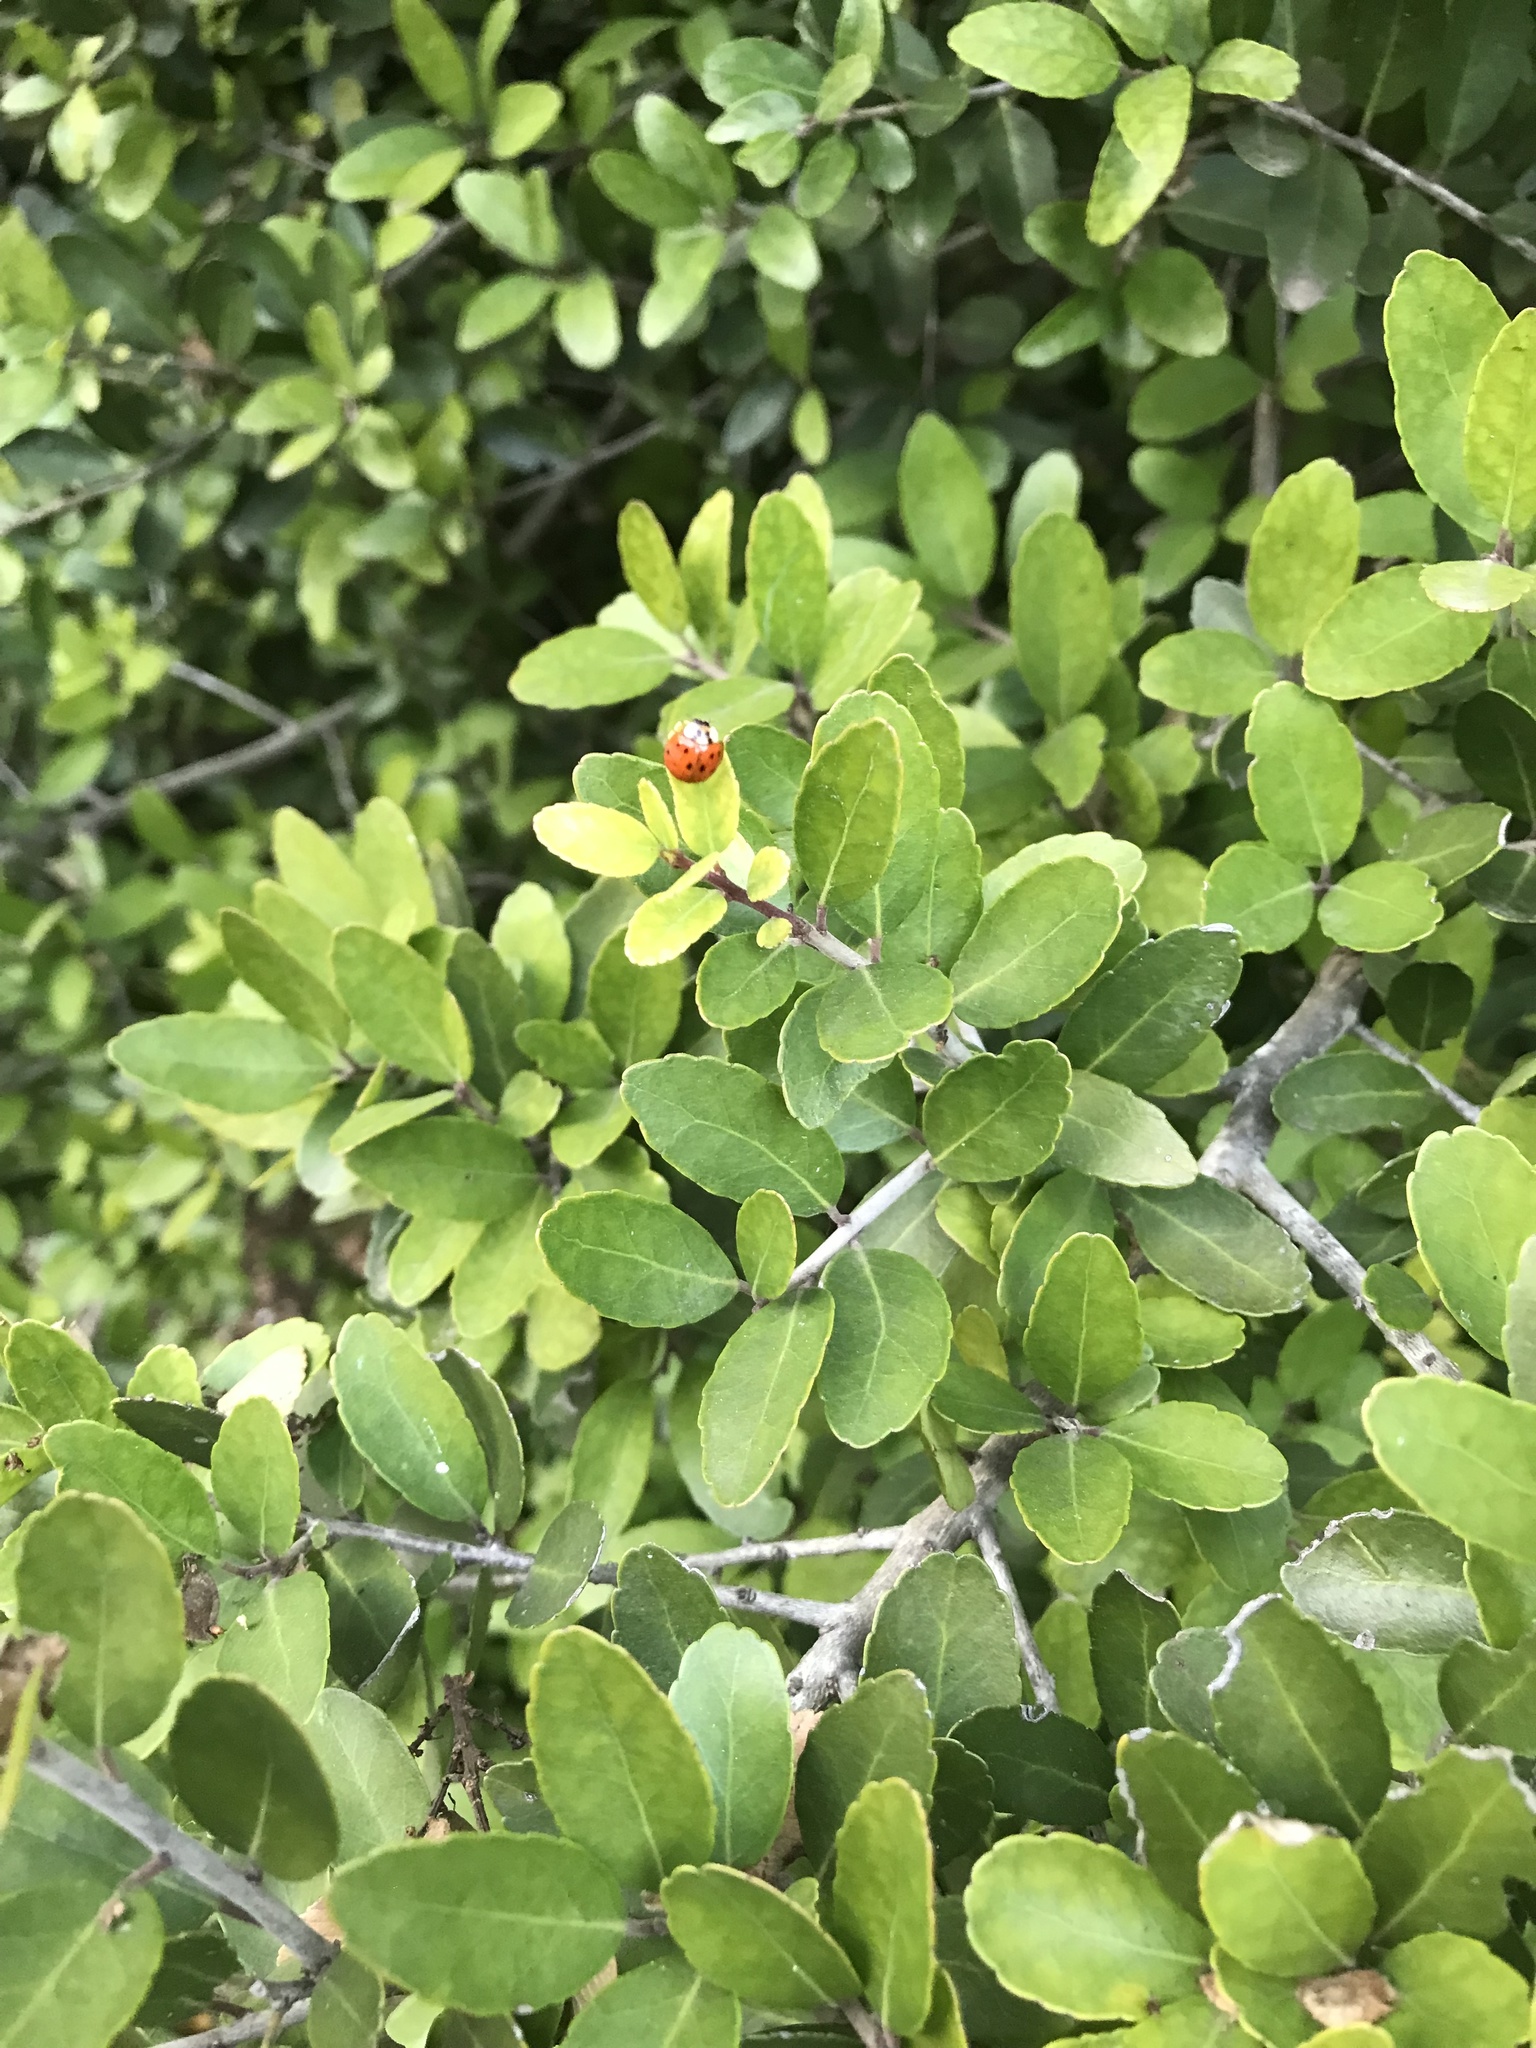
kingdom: Animalia
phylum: Arthropoda
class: Insecta
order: Coleoptera
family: Coccinellidae
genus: Harmonia
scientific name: Harmonia axyridis
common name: Harlequin ladybird
